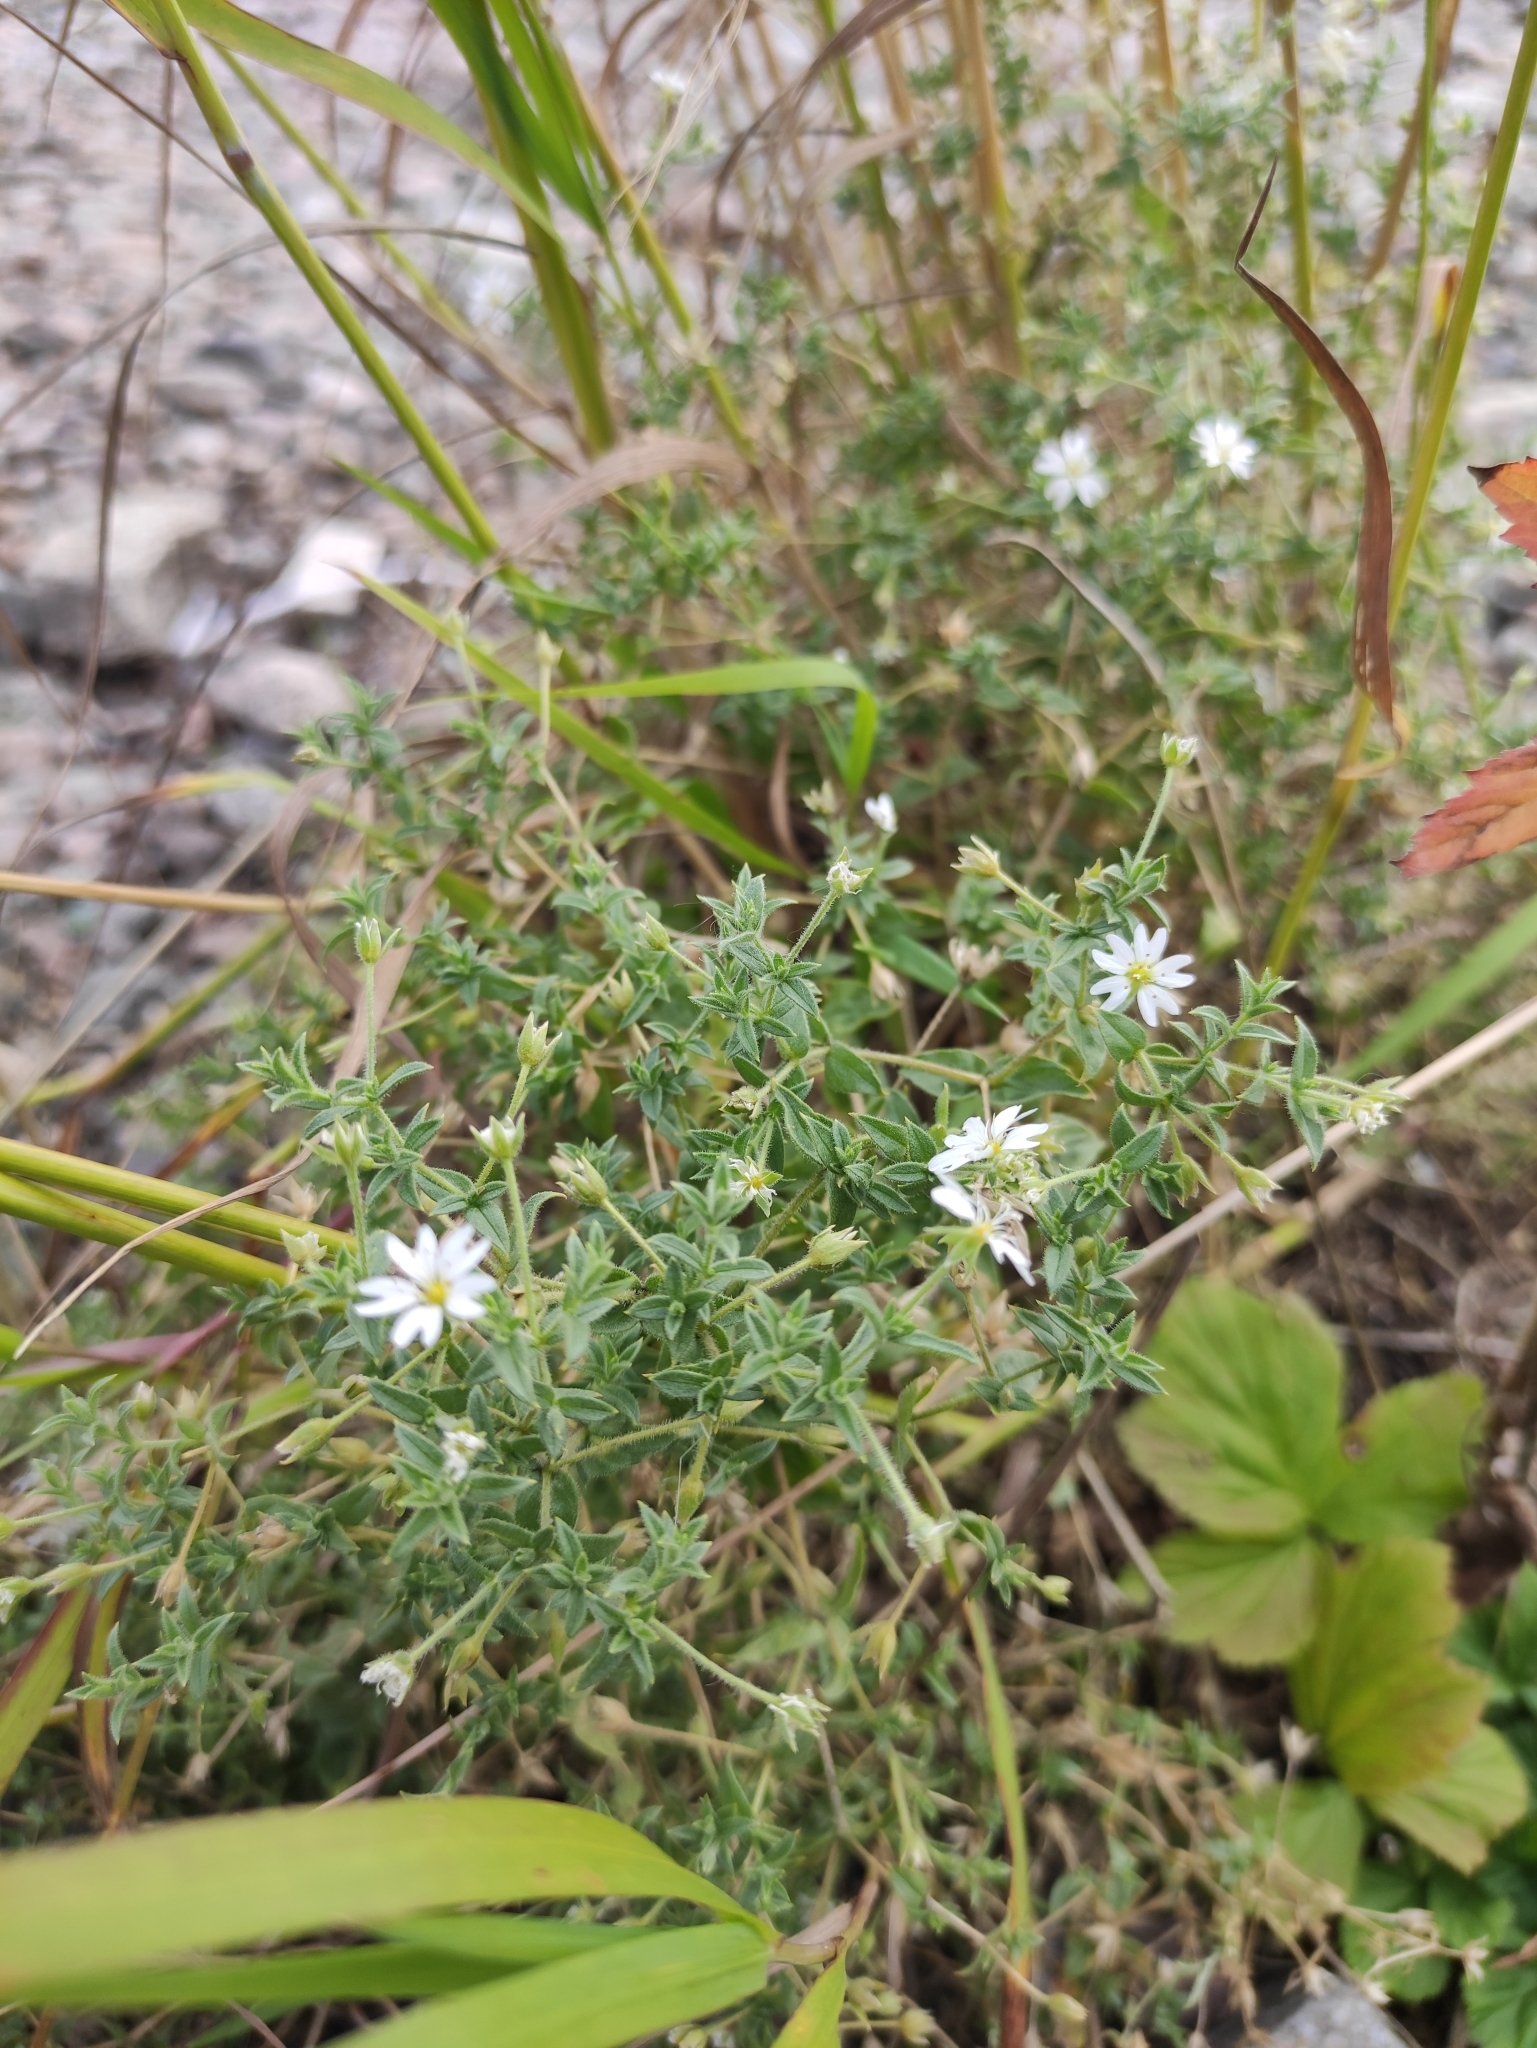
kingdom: Plantae
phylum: Tracheophyta
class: Magnoliopsida
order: Caryophyllales
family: Caryophyllaceae
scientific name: Caryophyllaceae
